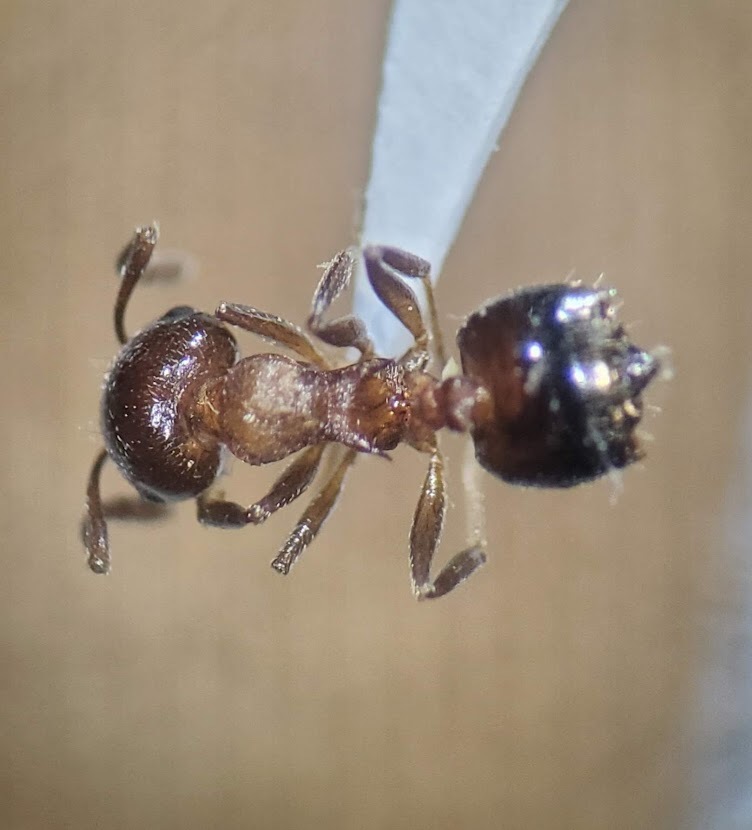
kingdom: Animalia
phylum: Arthropoda
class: Insecta
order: Hymenoptera
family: Formicidae
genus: Crematogaster
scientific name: Crematogaster cerasi
